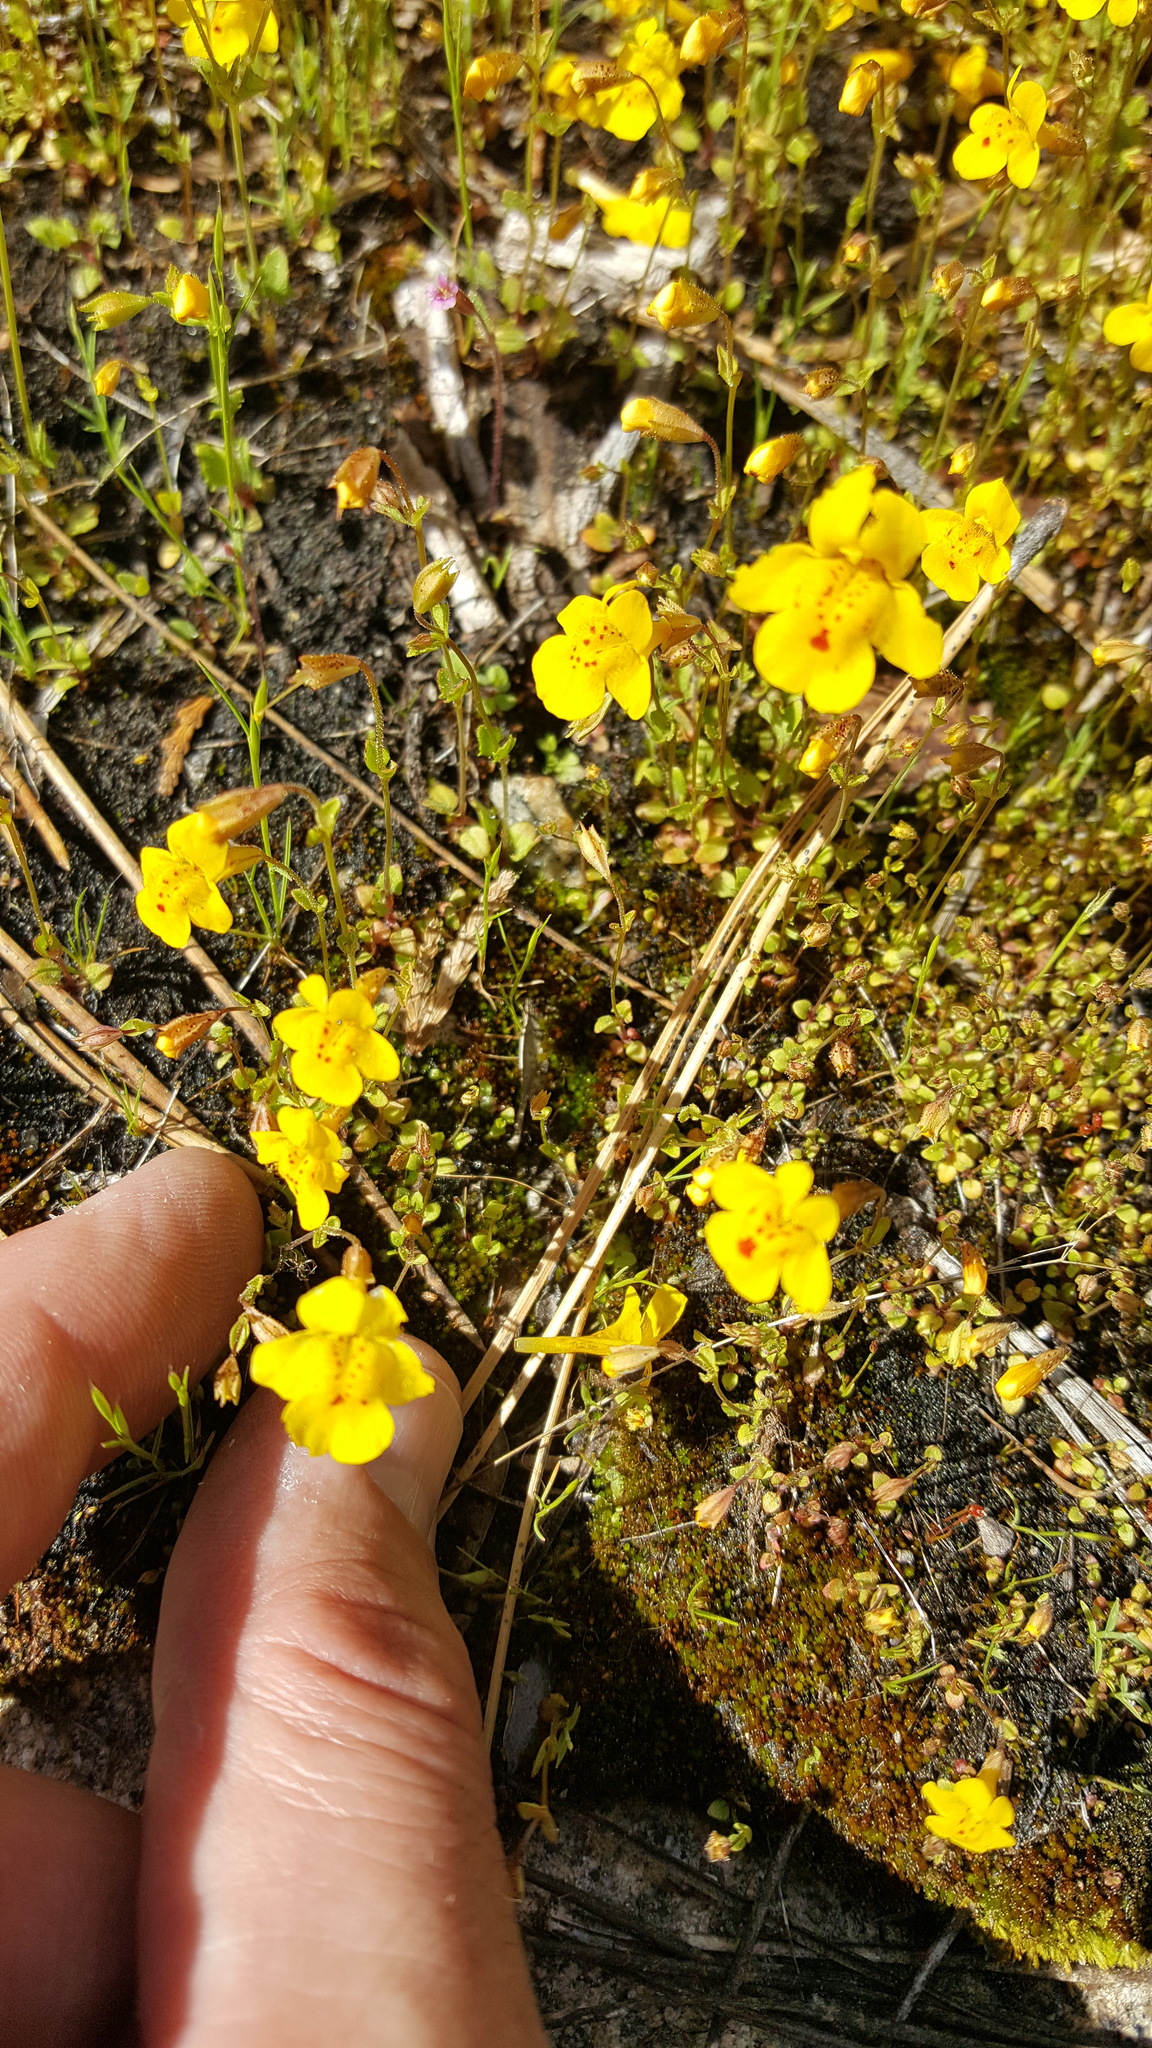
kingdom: Plantae
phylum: Tracheophyta
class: Magnoliopsida
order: Lamiales
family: Phrymaceae
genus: Erythranthe
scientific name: Erythranthe guttata
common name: Monkeyflower
